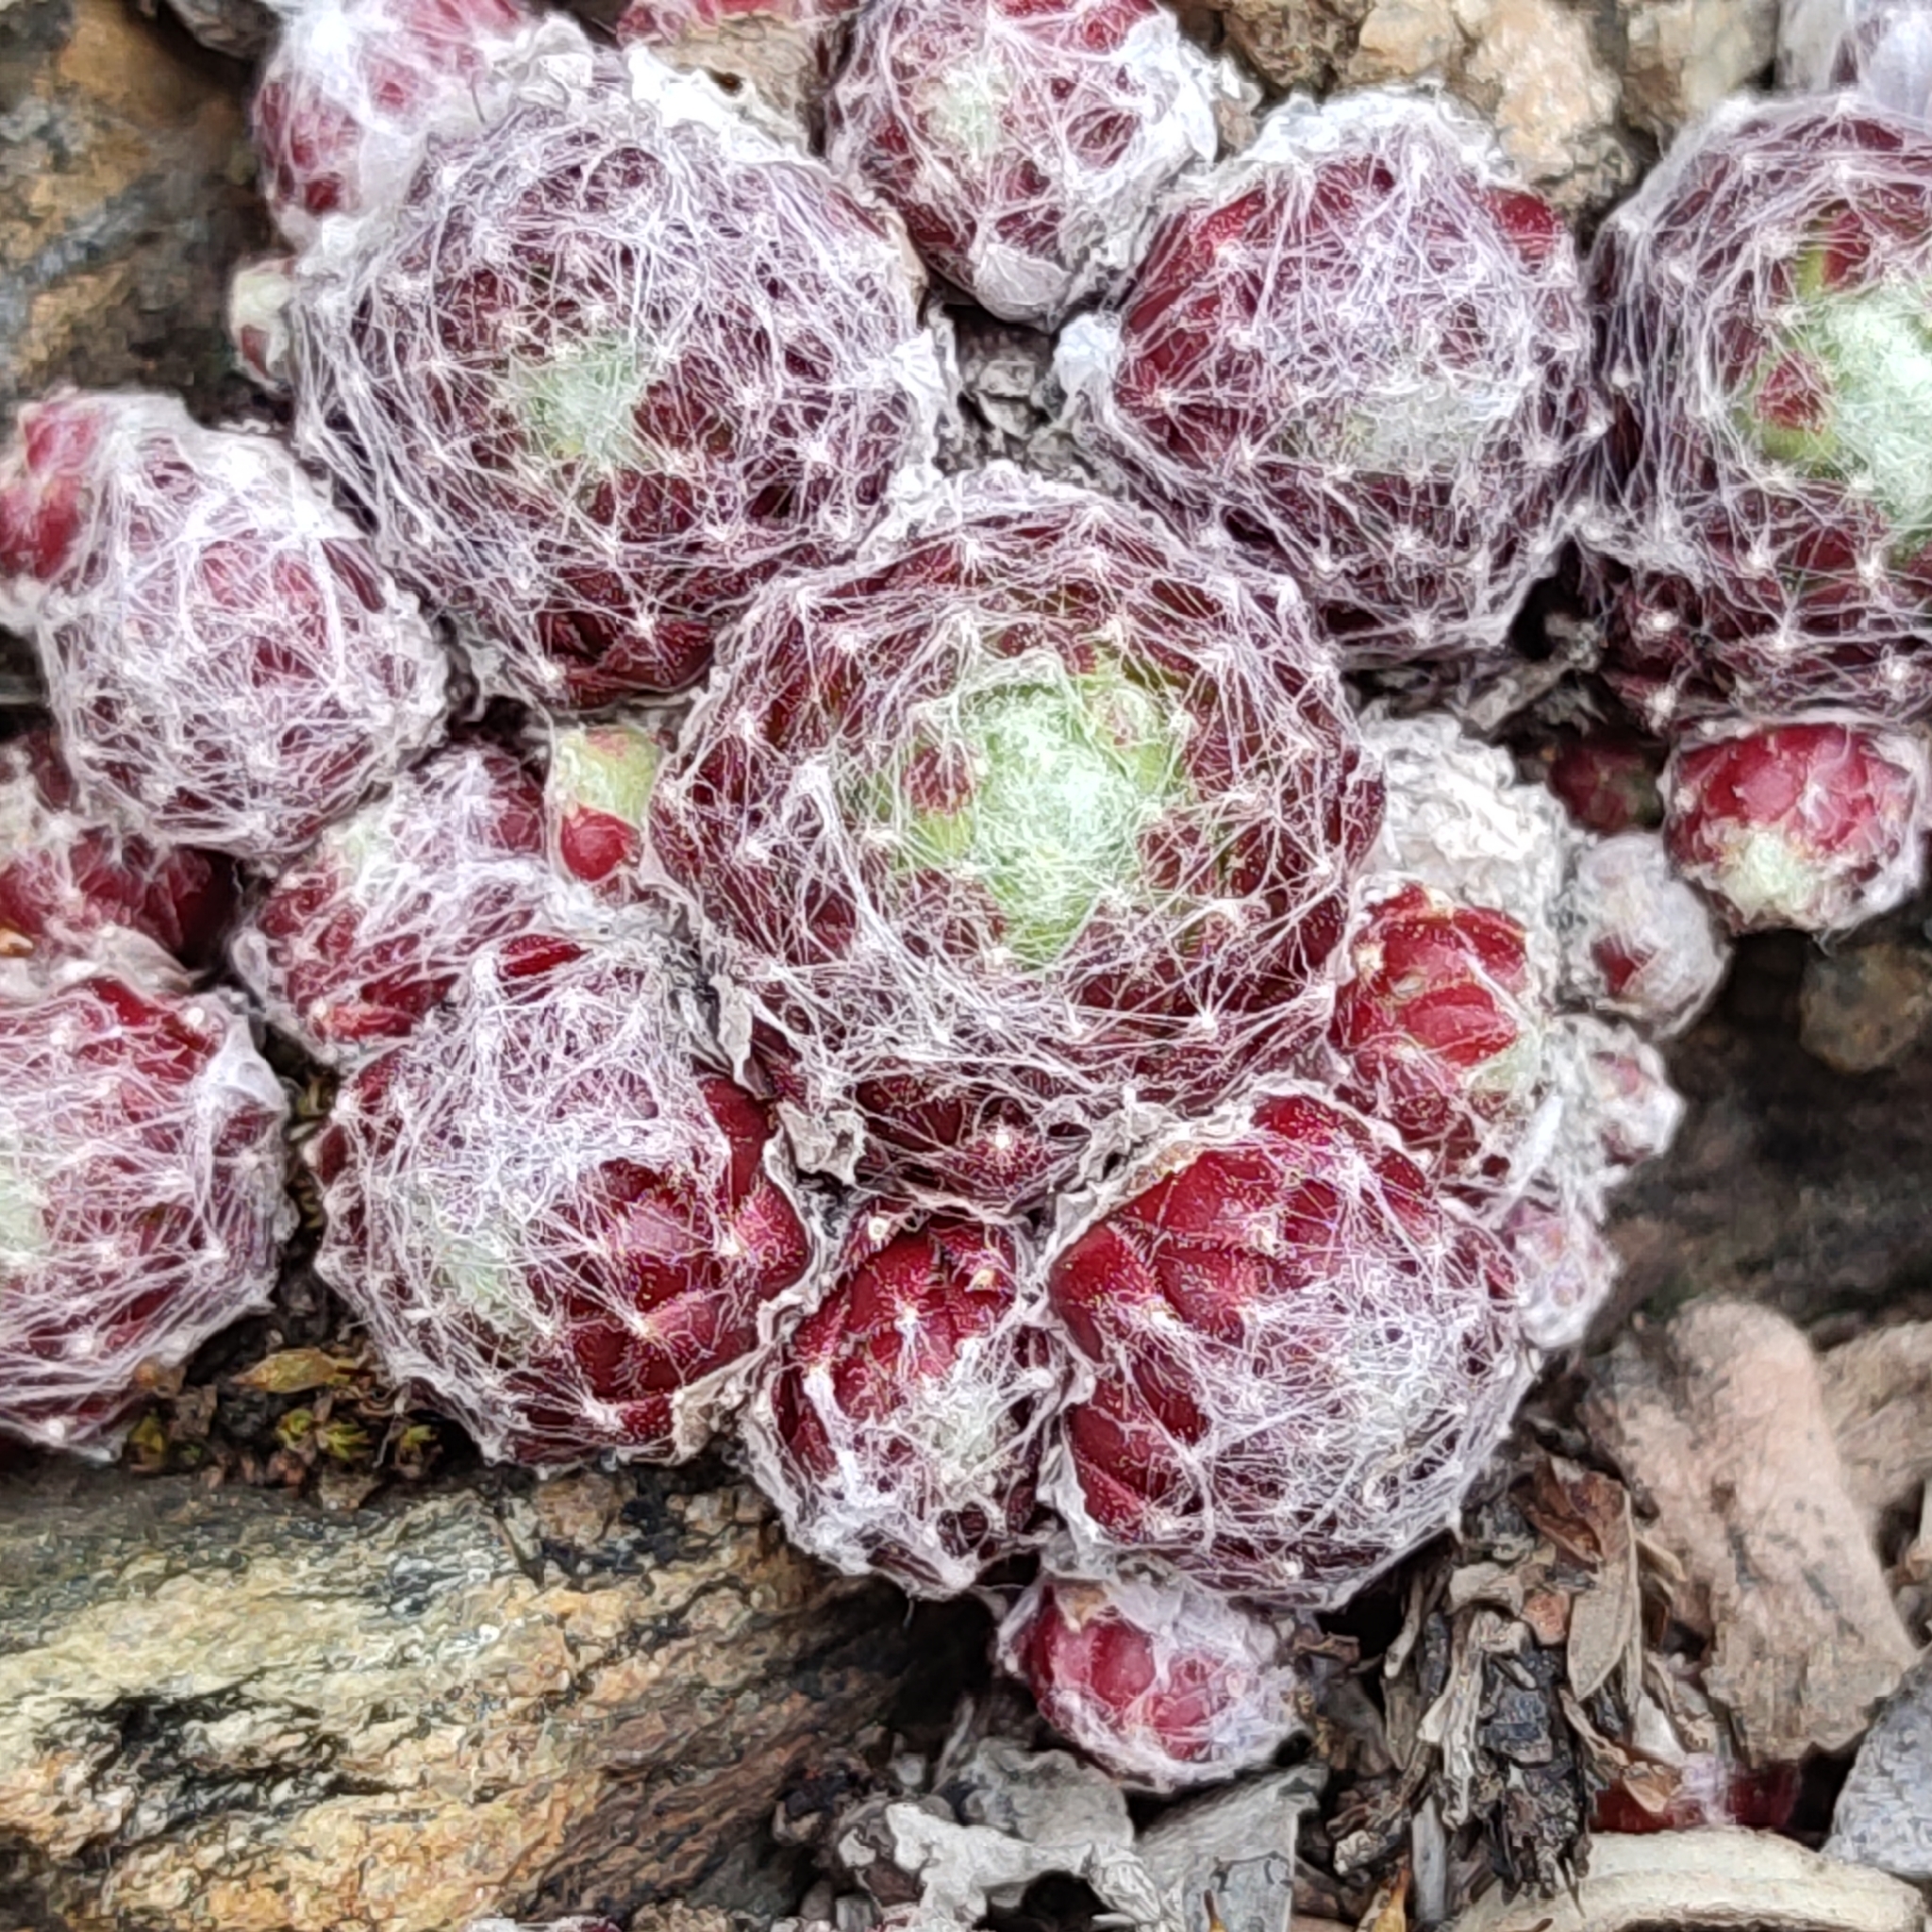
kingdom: Plantae
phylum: Tracheophyta
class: Magnoliopsida
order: Saxifragales
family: Crassulaceae
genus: Sempervivum
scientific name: Sempervivum arachnoideum
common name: Cobweb house-leek
